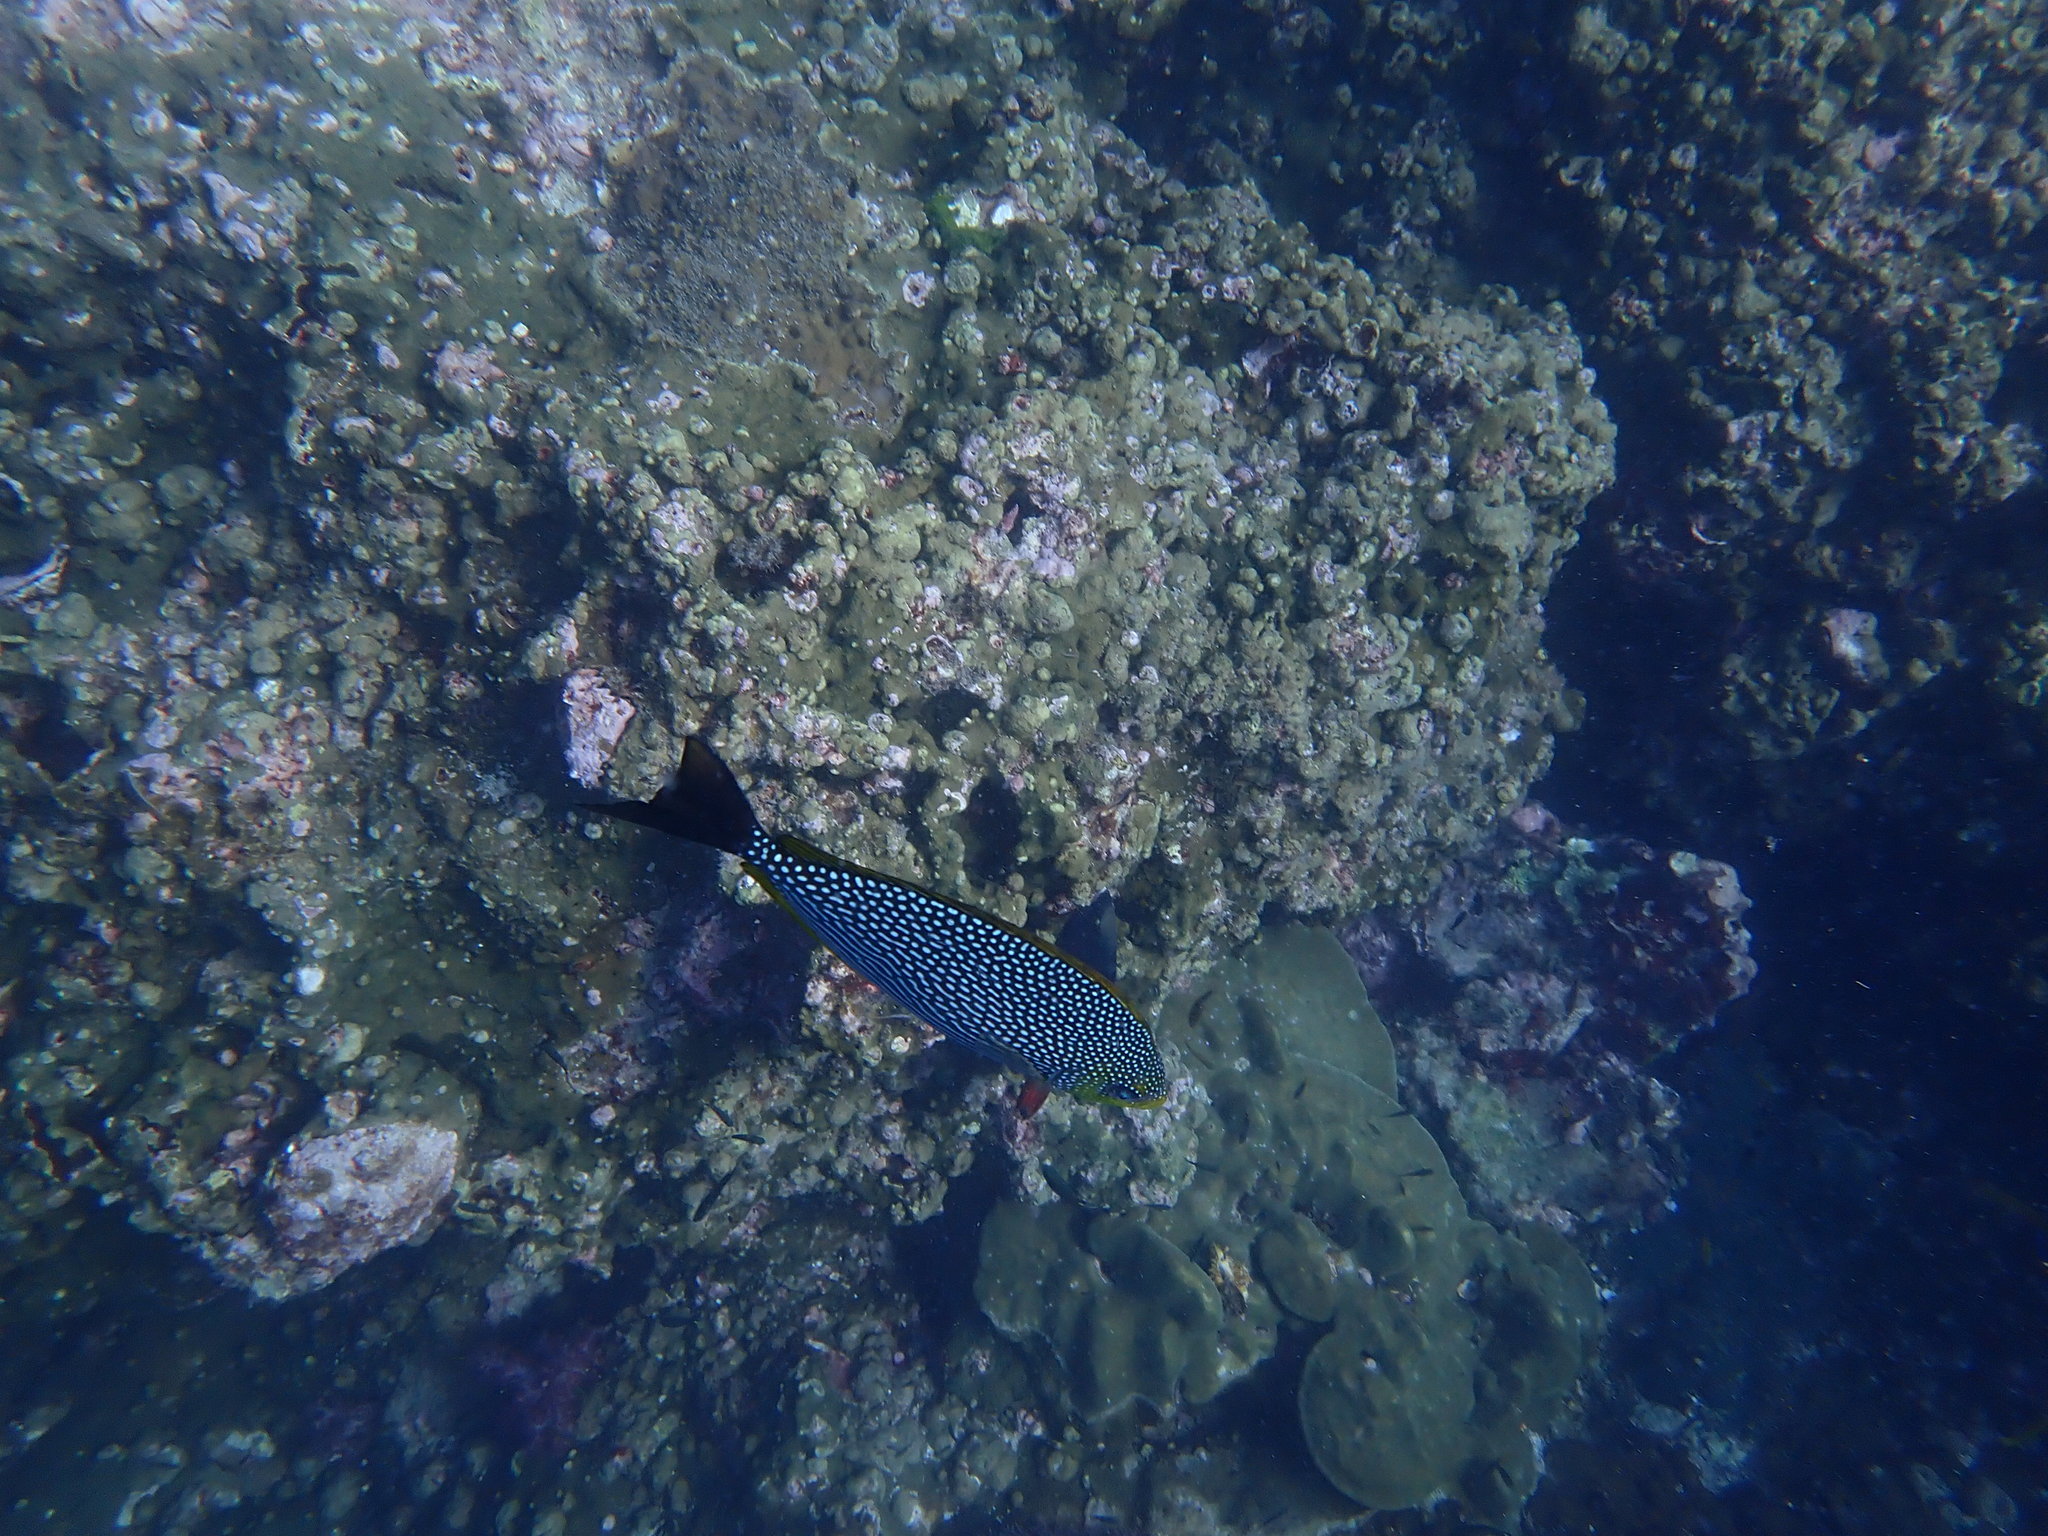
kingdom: Animalia
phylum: Chordata
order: Perciformes
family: Siganidae
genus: Siganus
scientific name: Siganus javus
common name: Java rabbitfish
